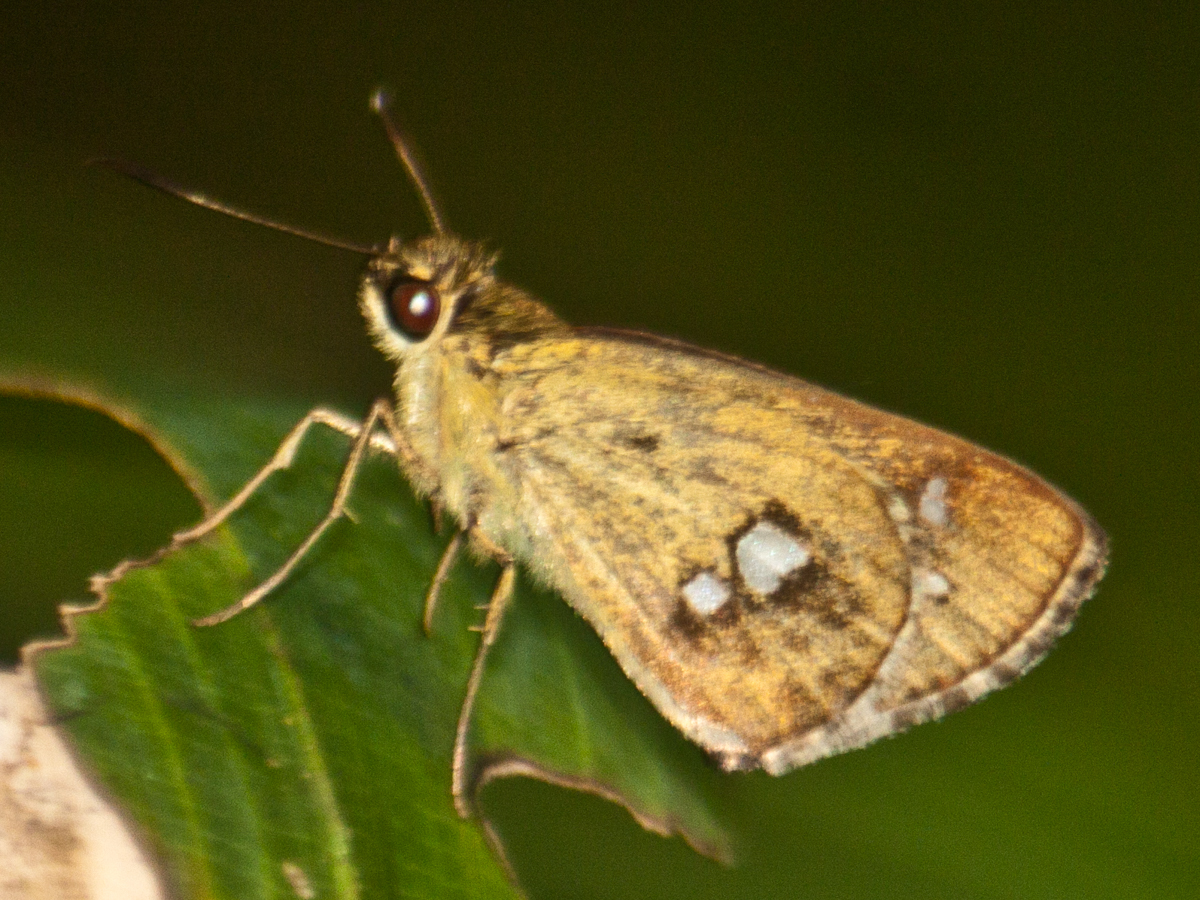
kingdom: Animalia
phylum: Arthropoda
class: Insecta
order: Lepidoptera
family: Hesperiidae
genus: Scobura
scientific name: Scobura isota
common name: Swinhoe's forest bob
